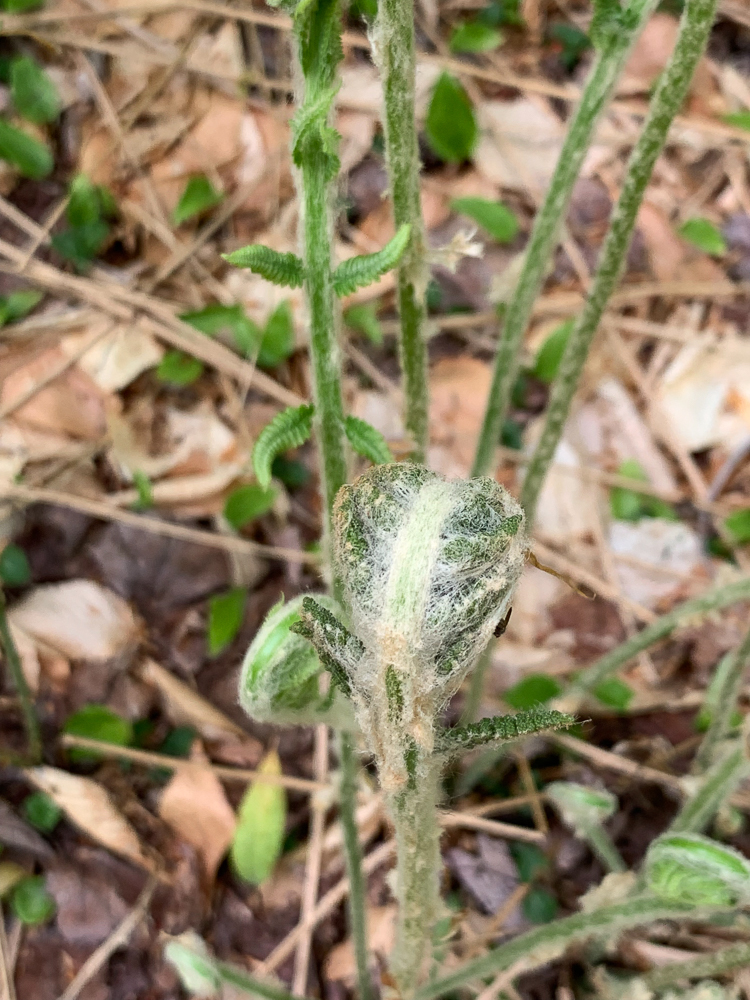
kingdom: Plantae
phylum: Tracheophyta
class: Polypodiopsida
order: Osmundales
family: Osmundaceae
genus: Osmundastrum
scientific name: Osmundastrum cinnamomeum
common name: Cinnamon fern
